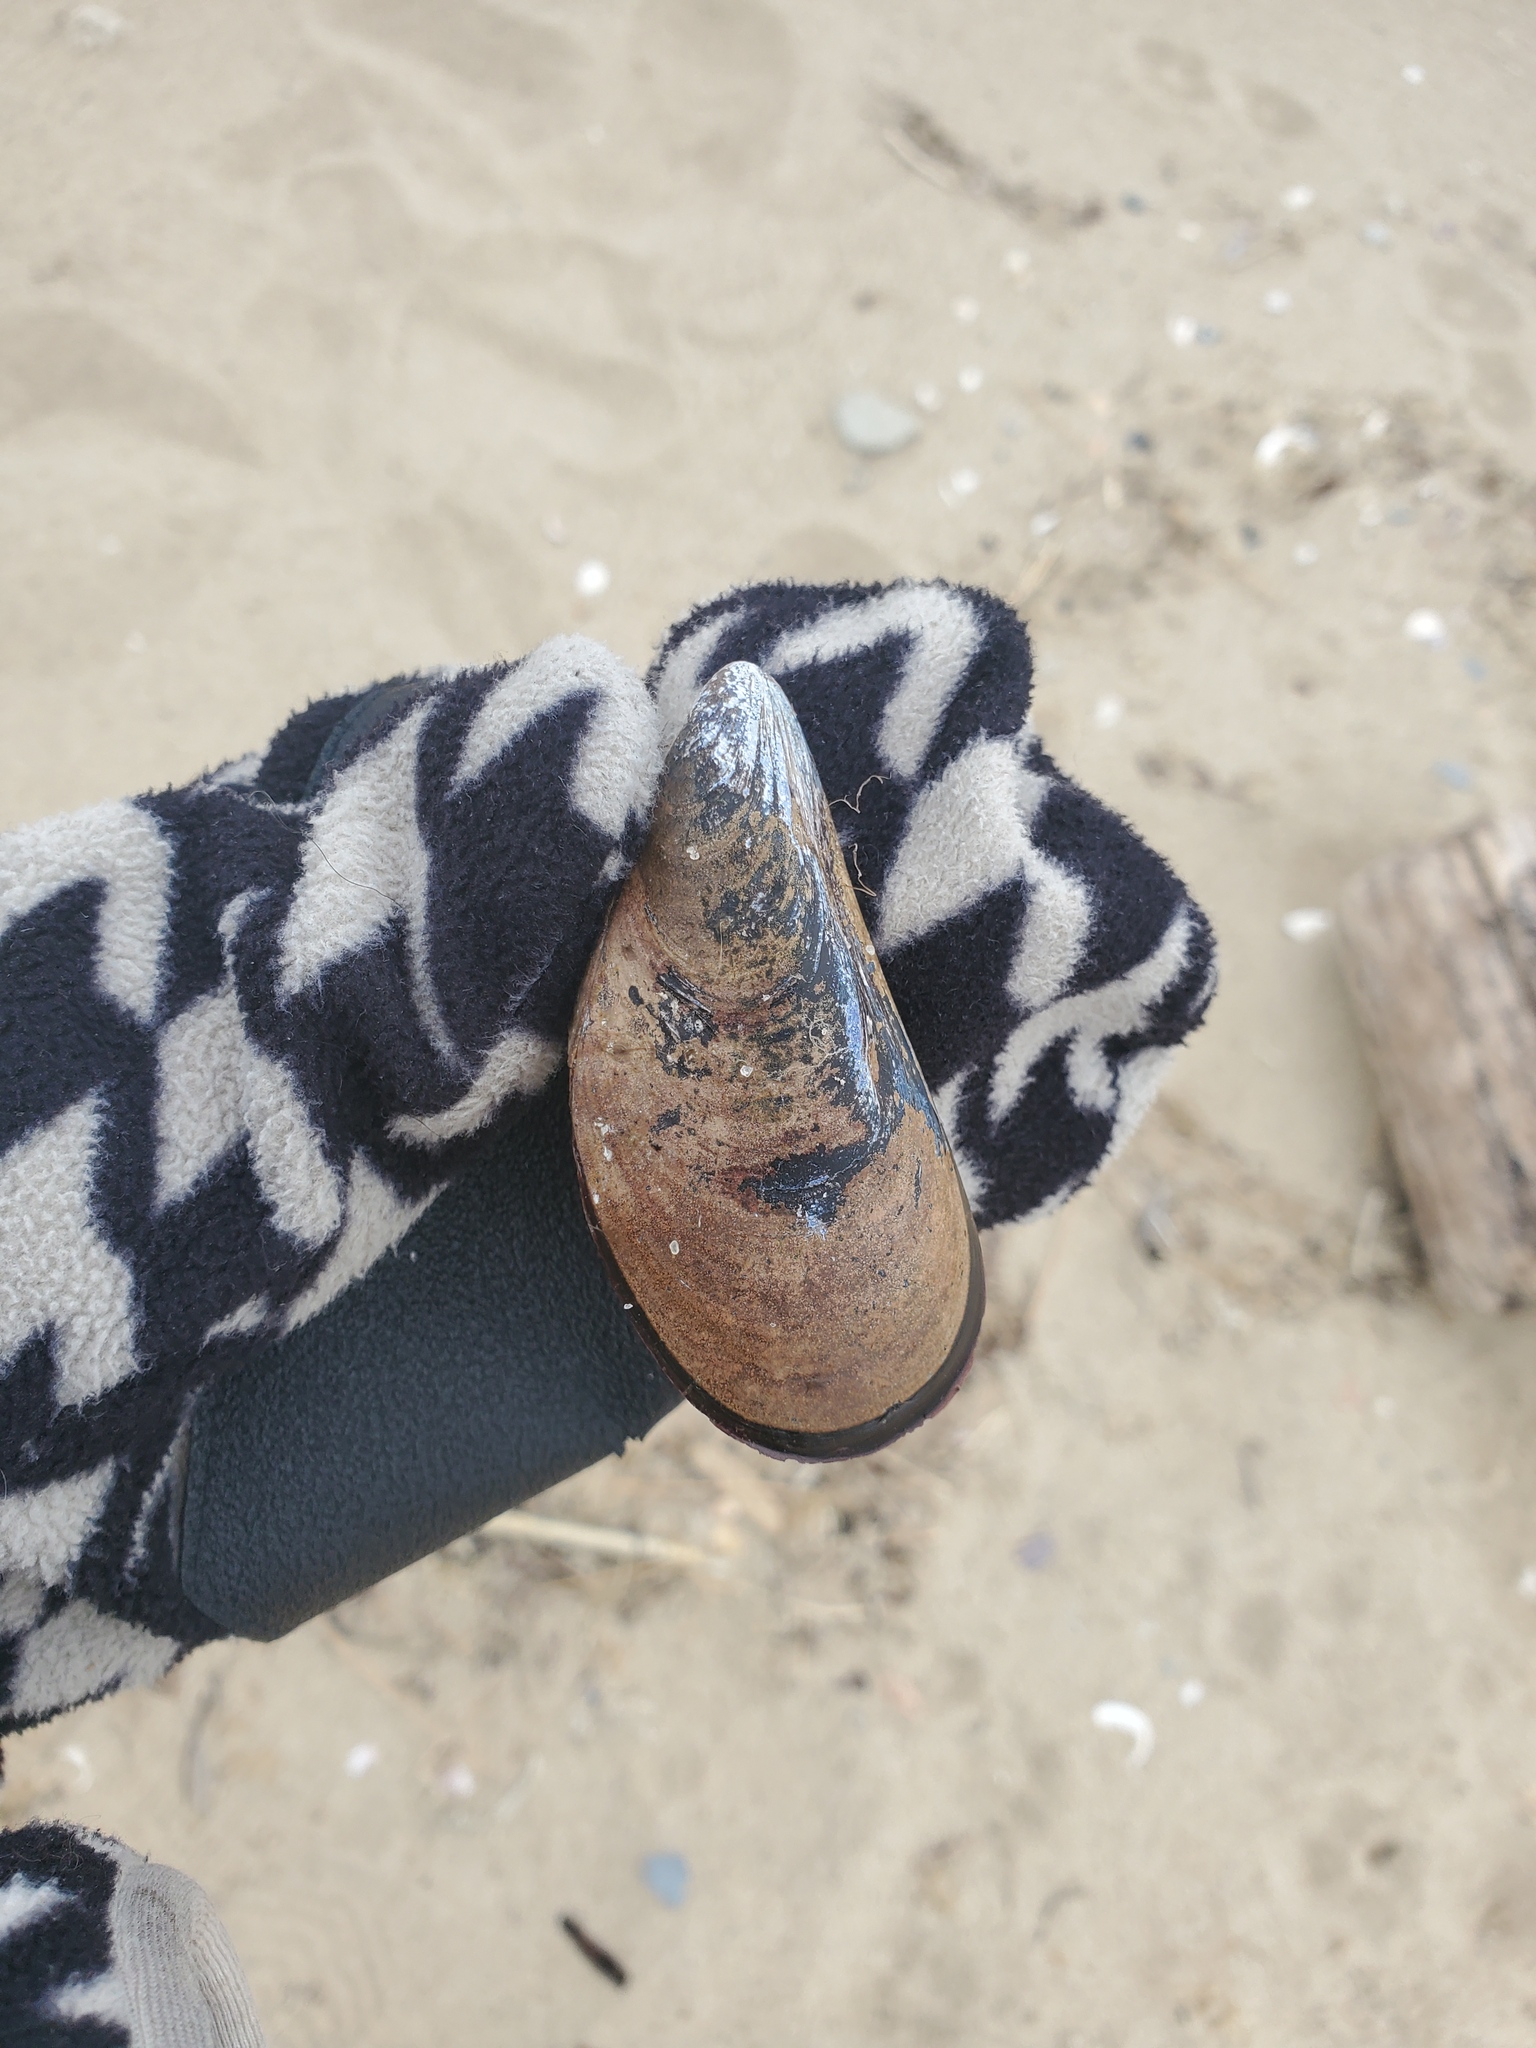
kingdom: Animalia
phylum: Mollusca
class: Bivalvia
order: Mytilida
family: Mytilidae
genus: Mytilus
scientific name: Mytilus edulis
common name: Blue mussel
